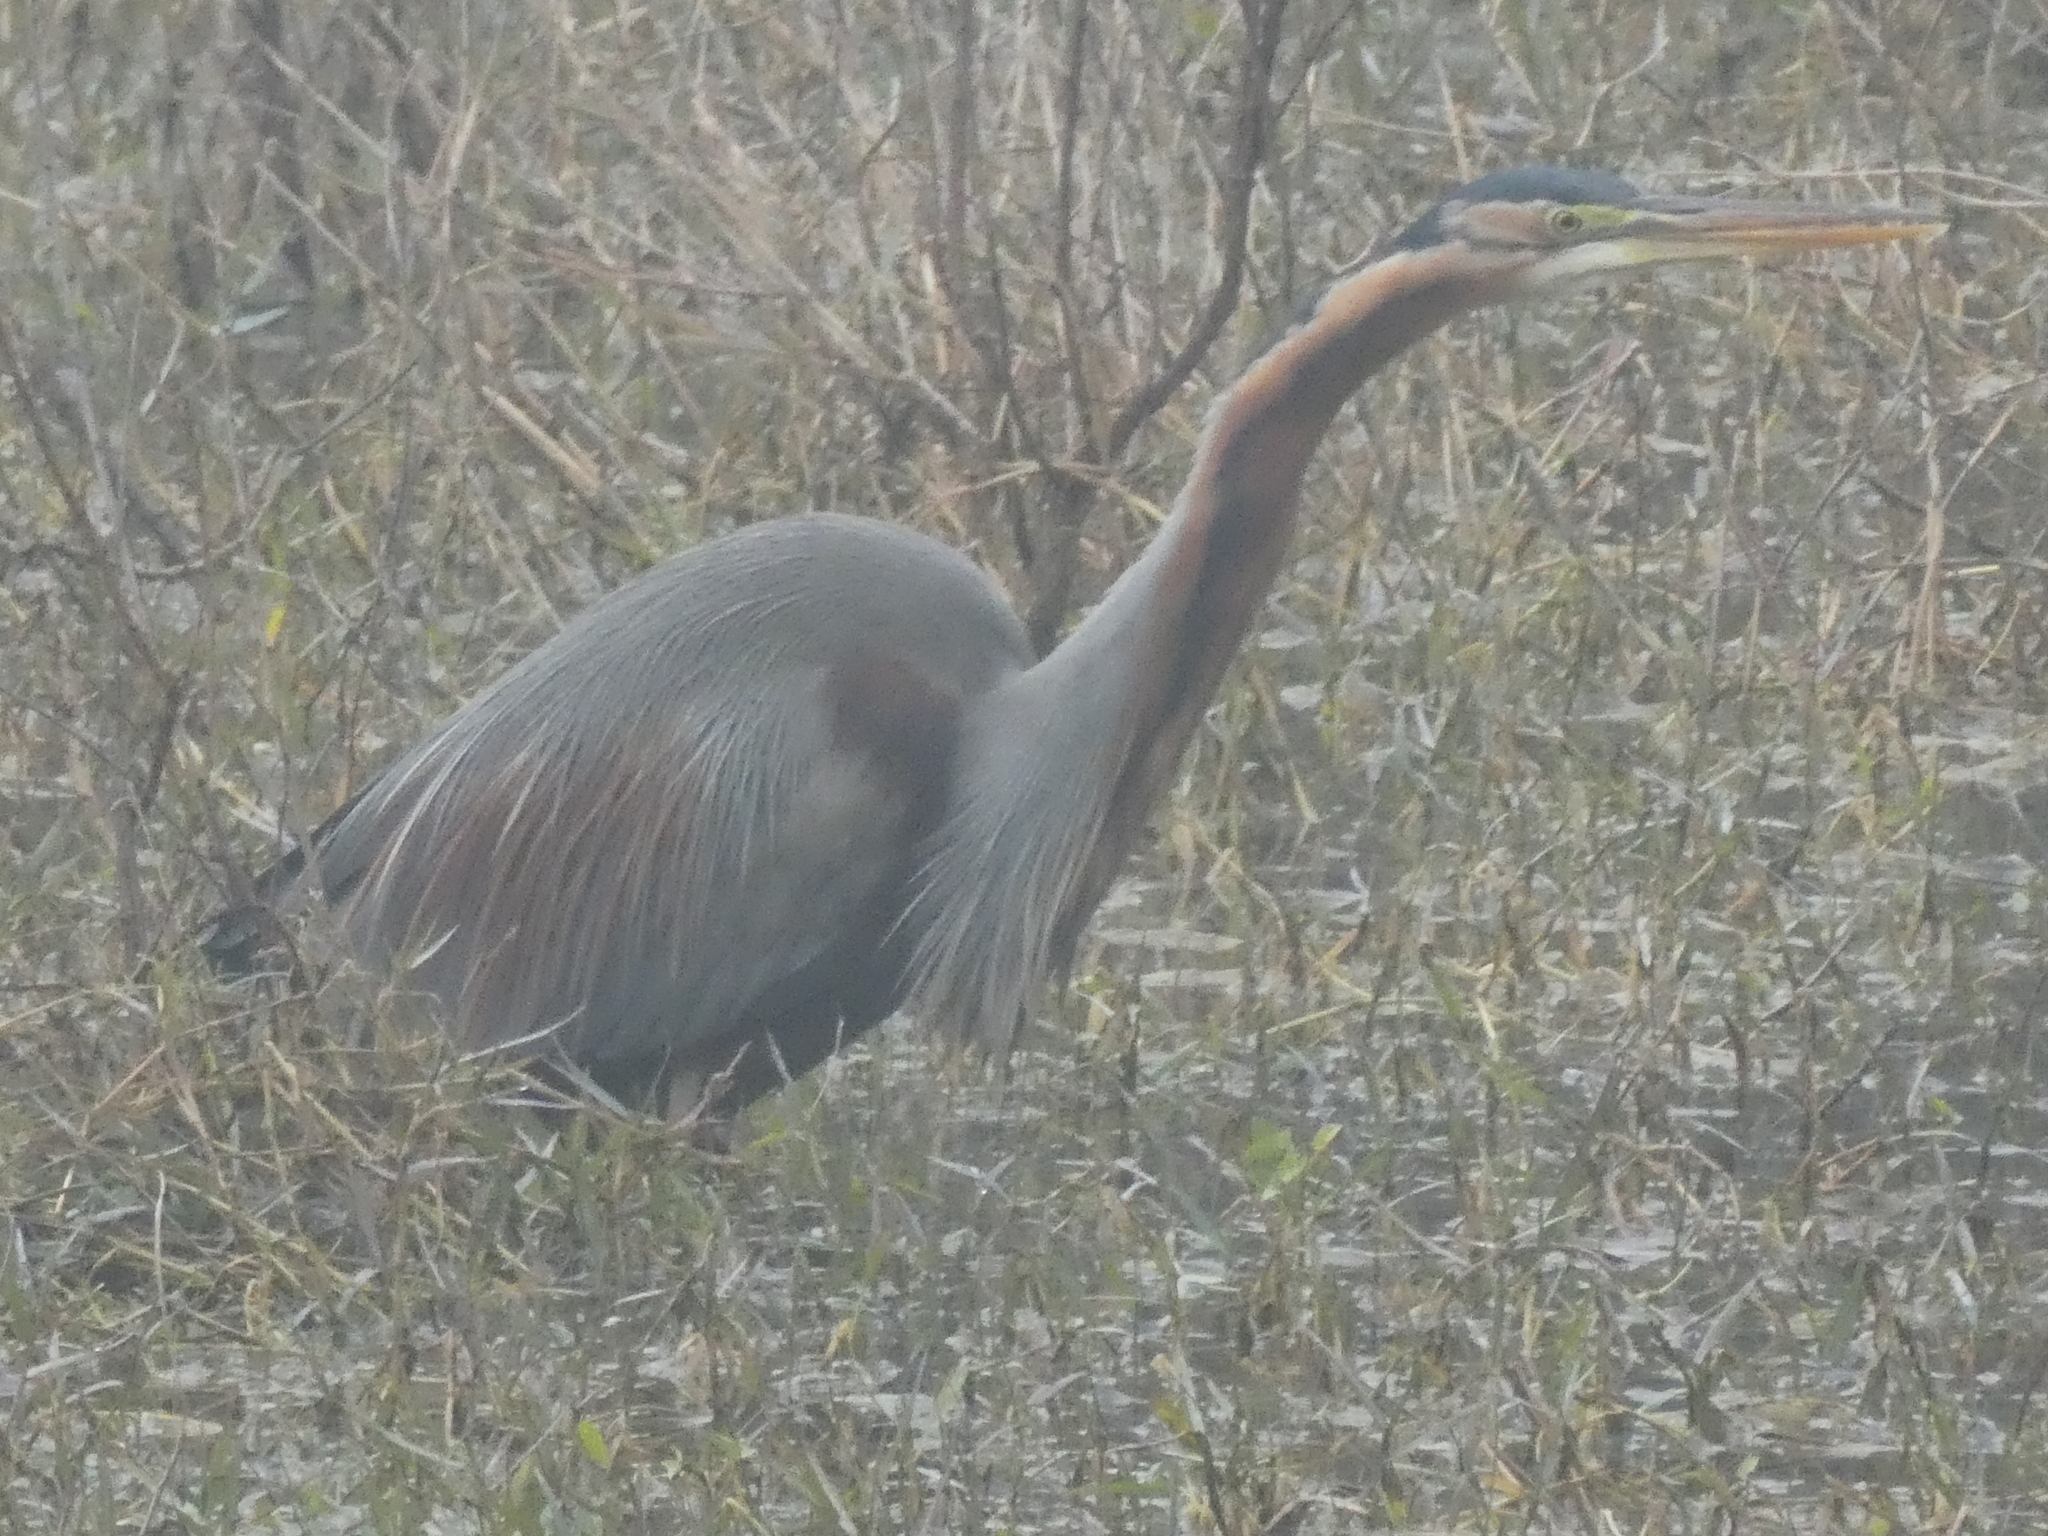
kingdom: Animalia
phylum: Chordata
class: Aves
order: Pelecaniformes
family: Ardeidae
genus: Ardea
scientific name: Ardea purpurea
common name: Purple heron
